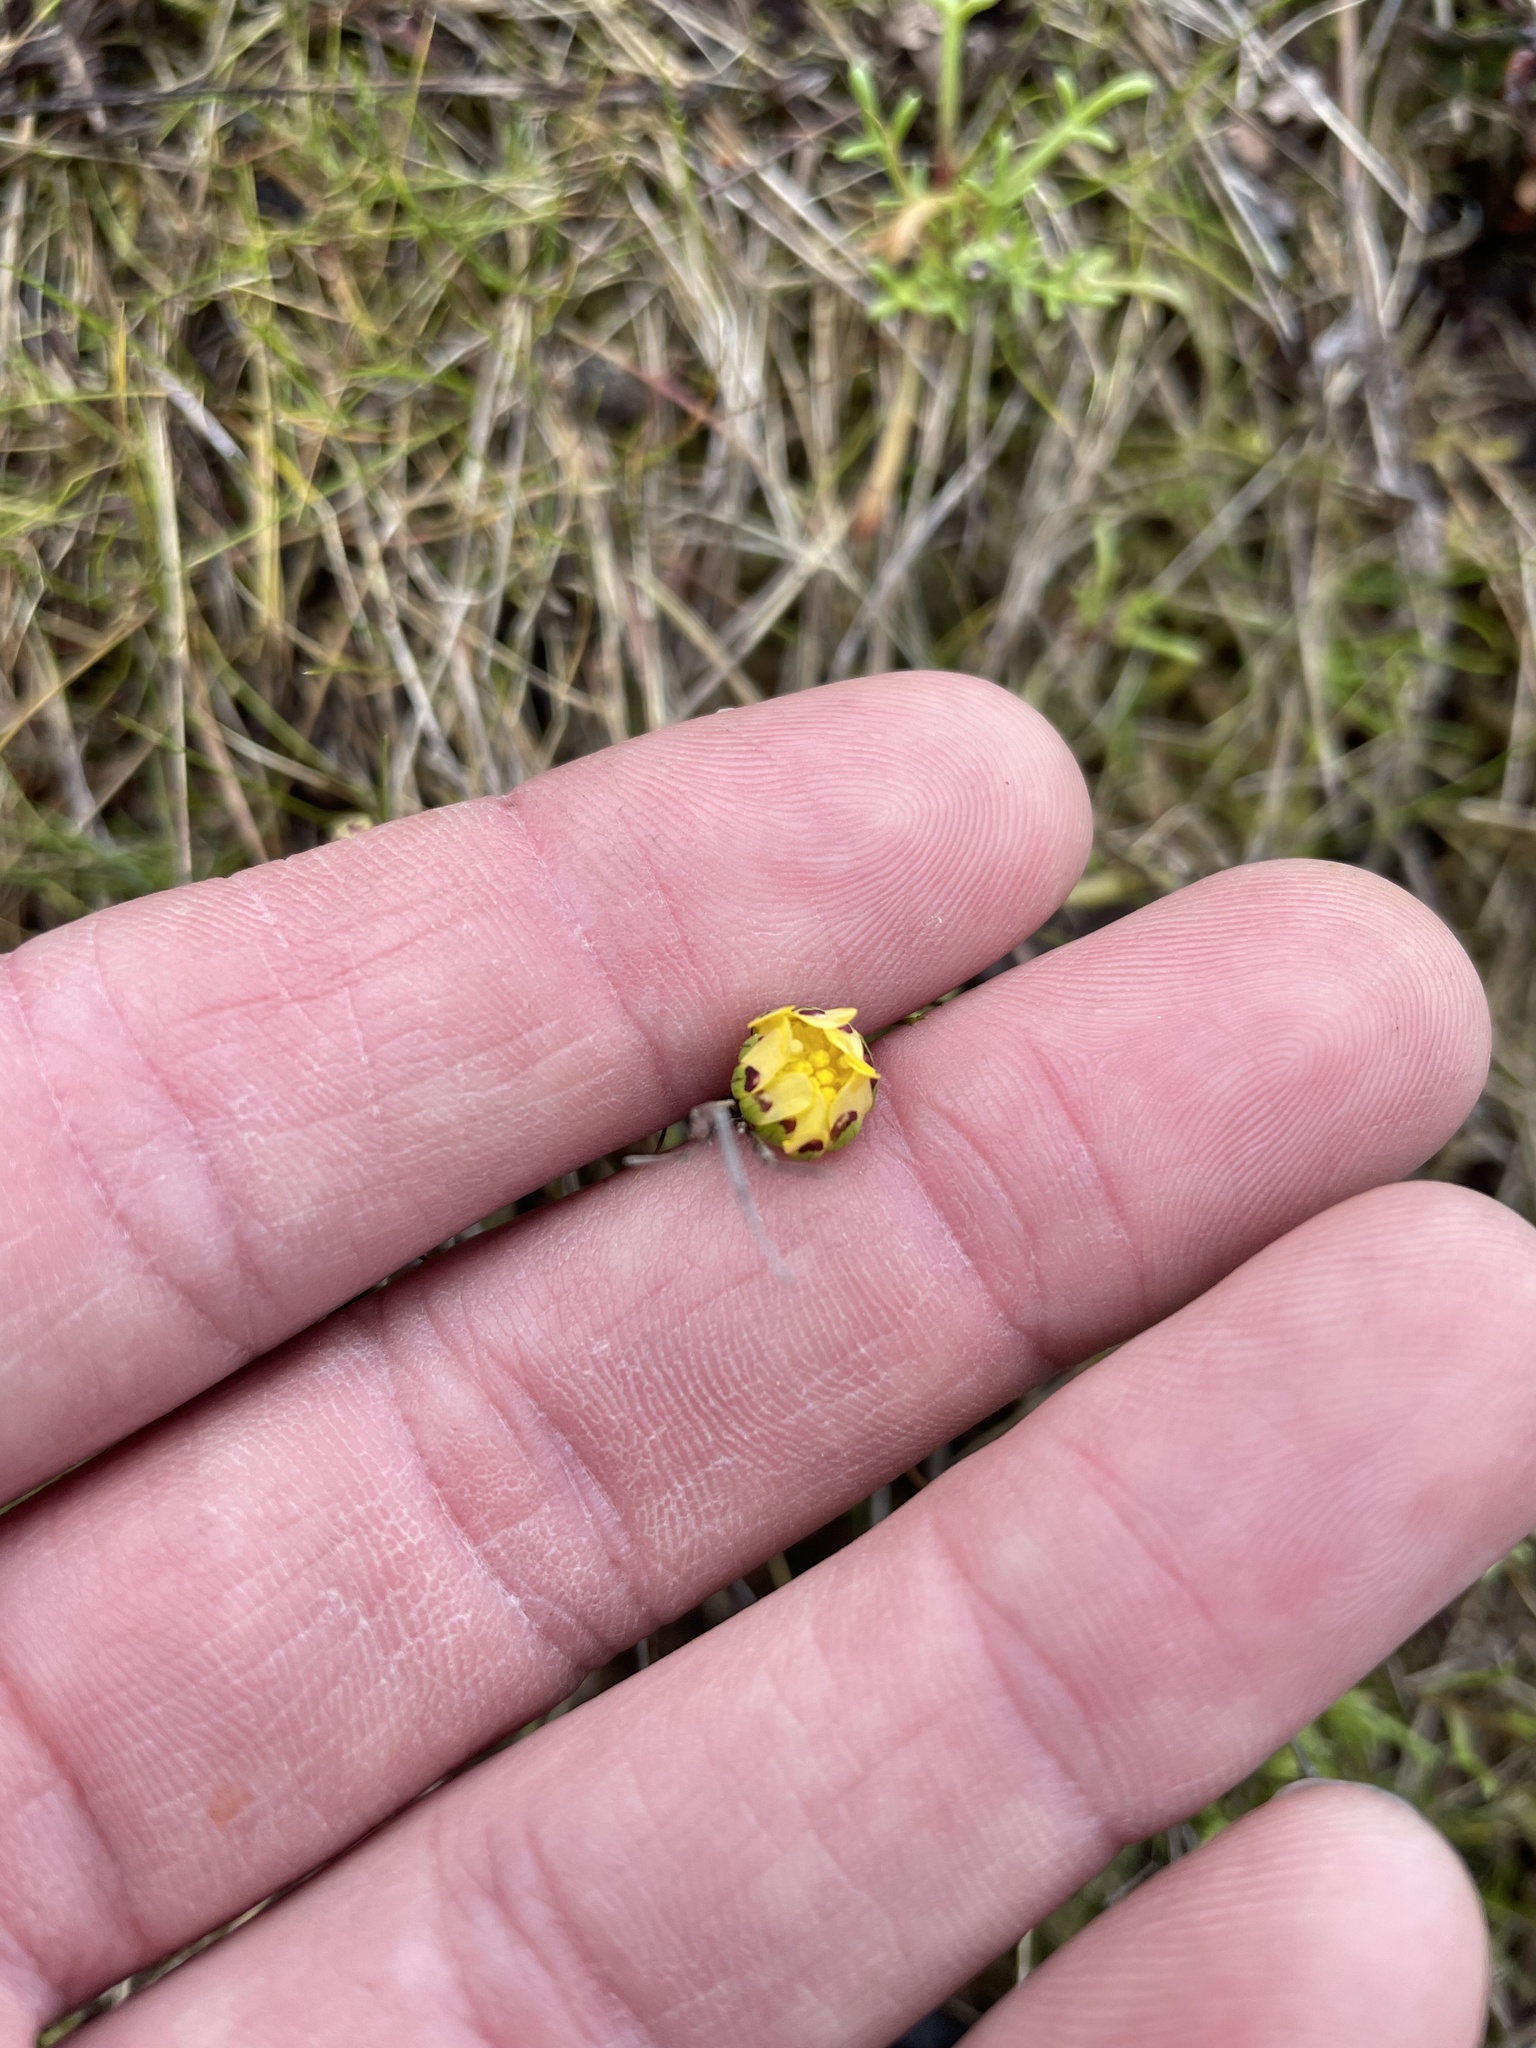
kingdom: Plantae
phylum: Tracheophyta
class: Magnoliopsida
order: Asterales
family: Asteraceae
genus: Blennosperma
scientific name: Blennosperma nanum
